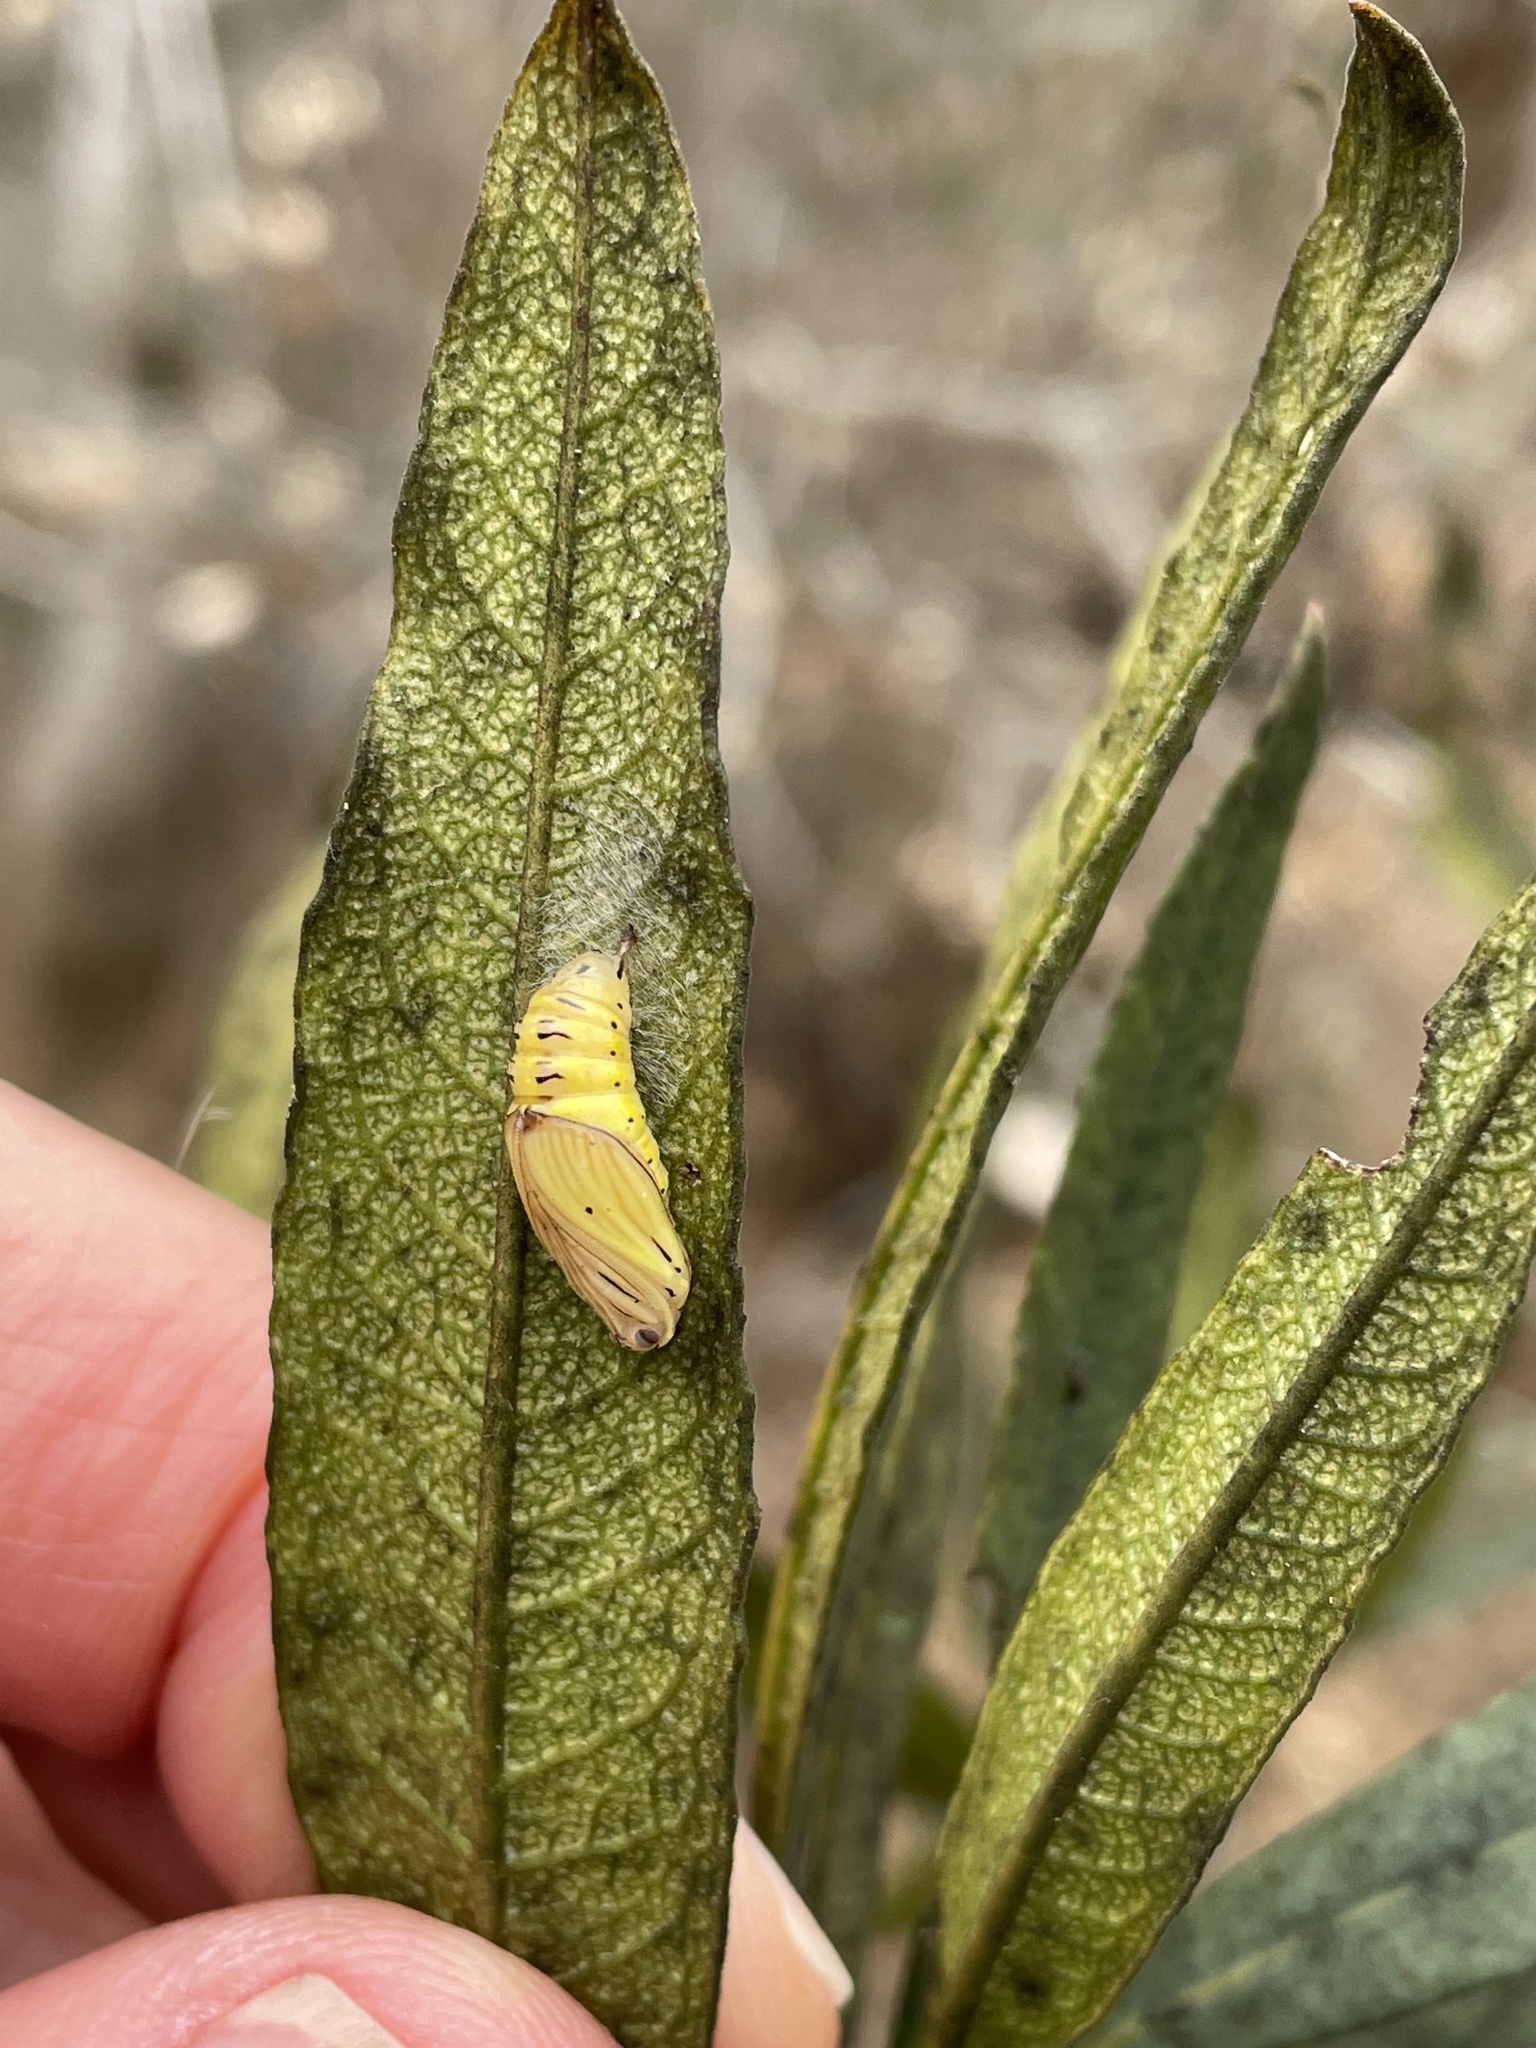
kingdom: Animalia
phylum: Arthropoda
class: Insecta
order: Lepidoptera
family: Notodontidae
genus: Phryganidia
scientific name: Phryganidia californica
